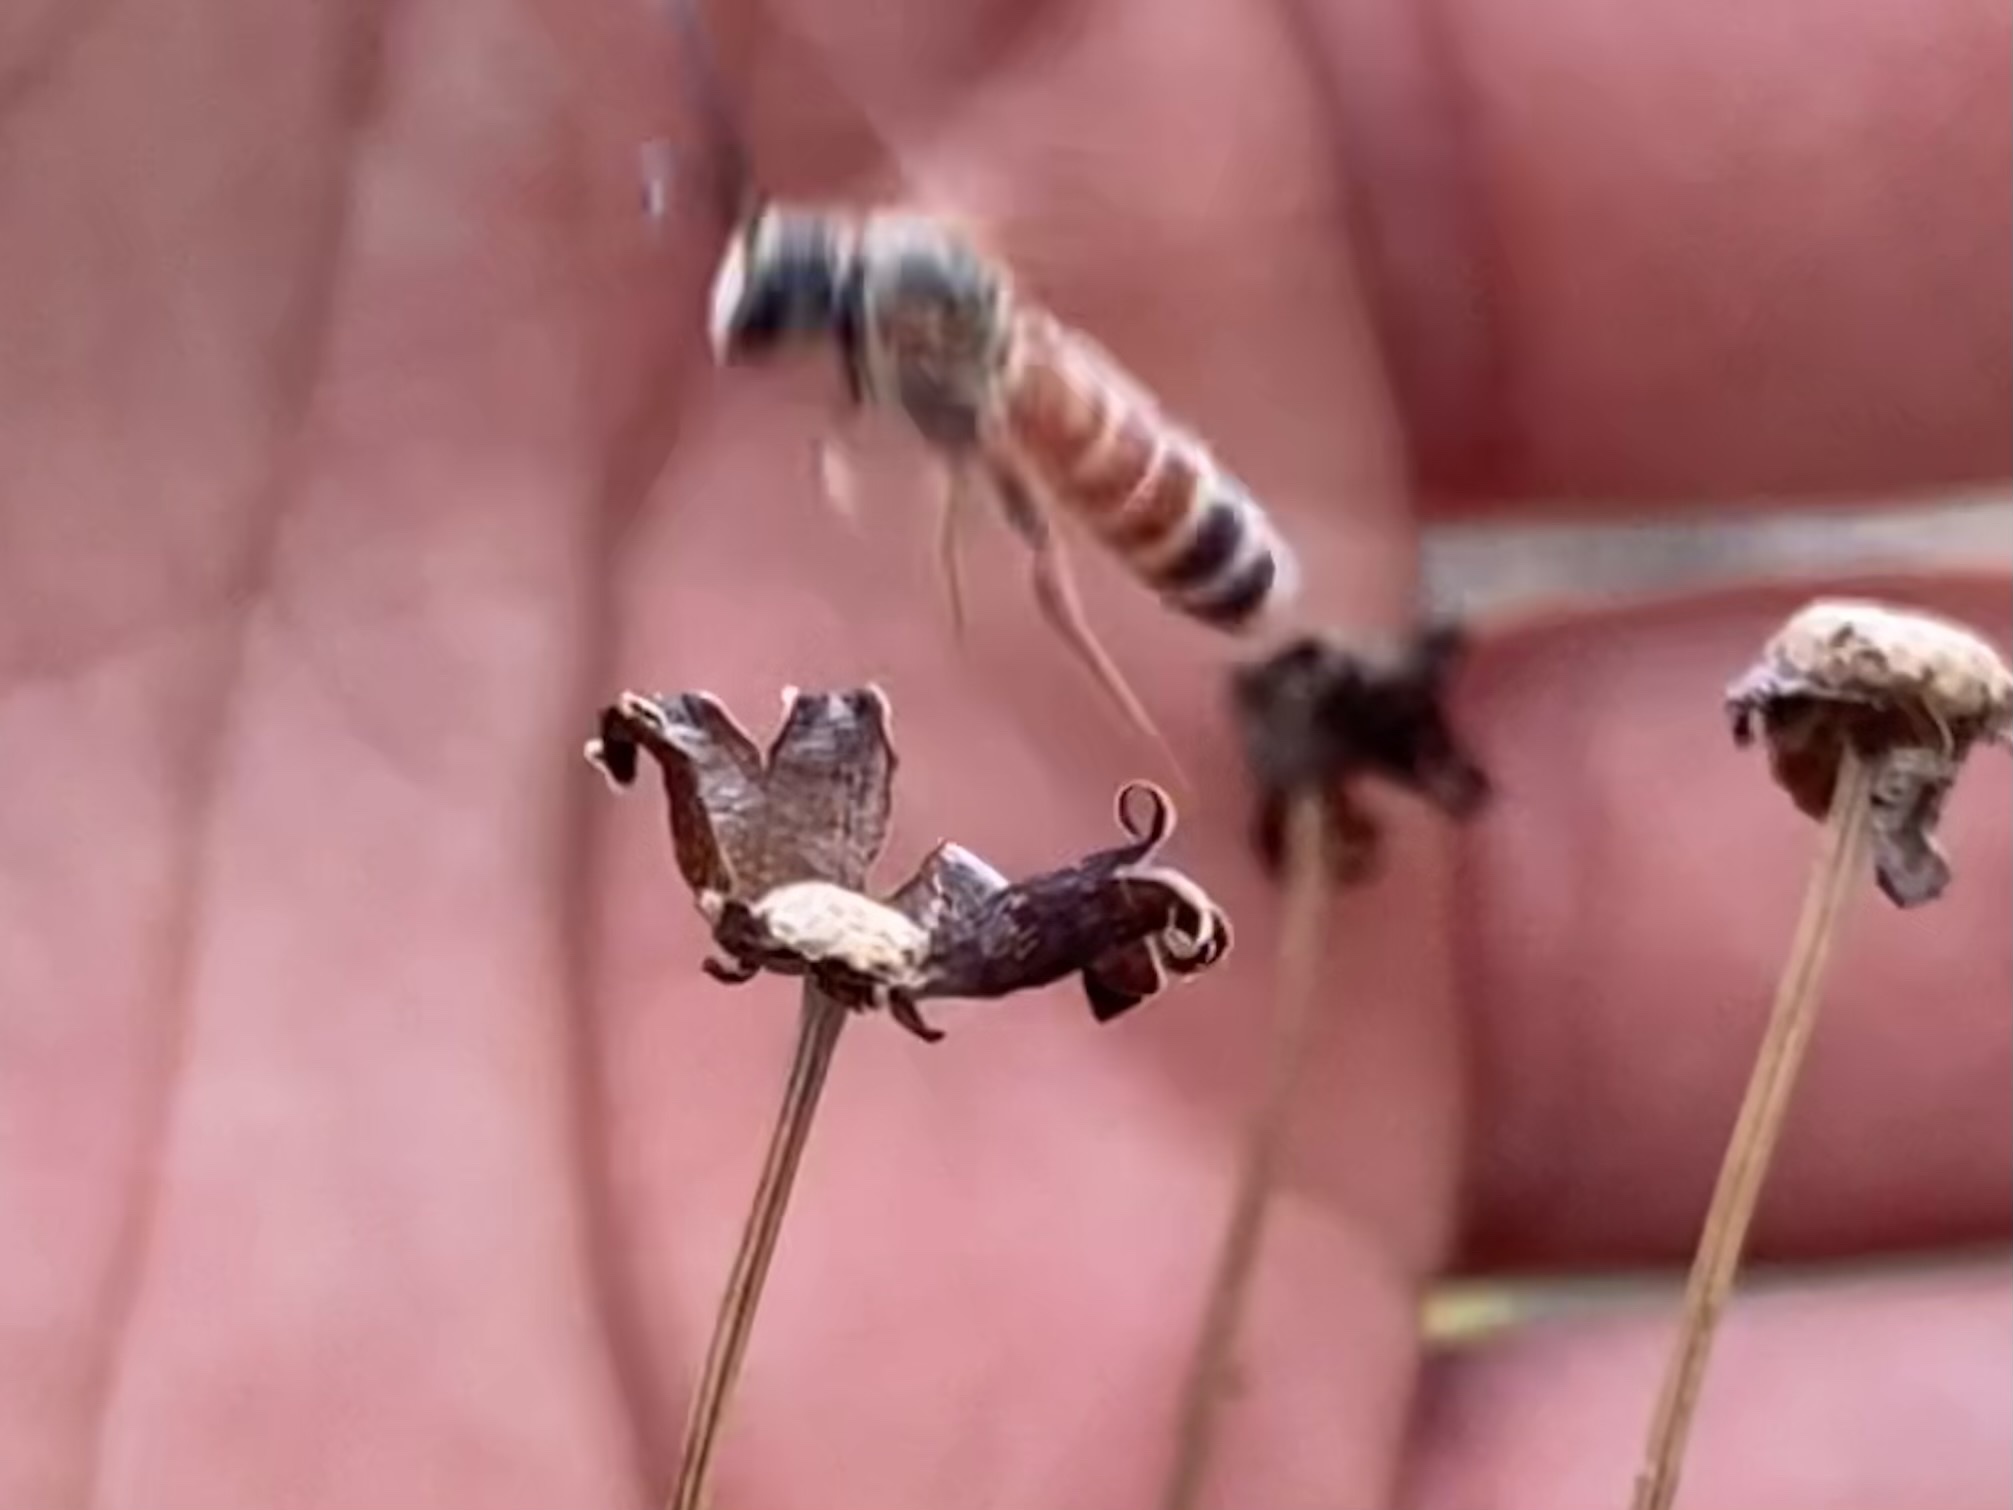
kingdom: Animalia
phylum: Arthropoda
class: Insecta
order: Hymenoptera
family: Halictidae
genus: Dieunomia
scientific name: Dieunomia nevadensis
